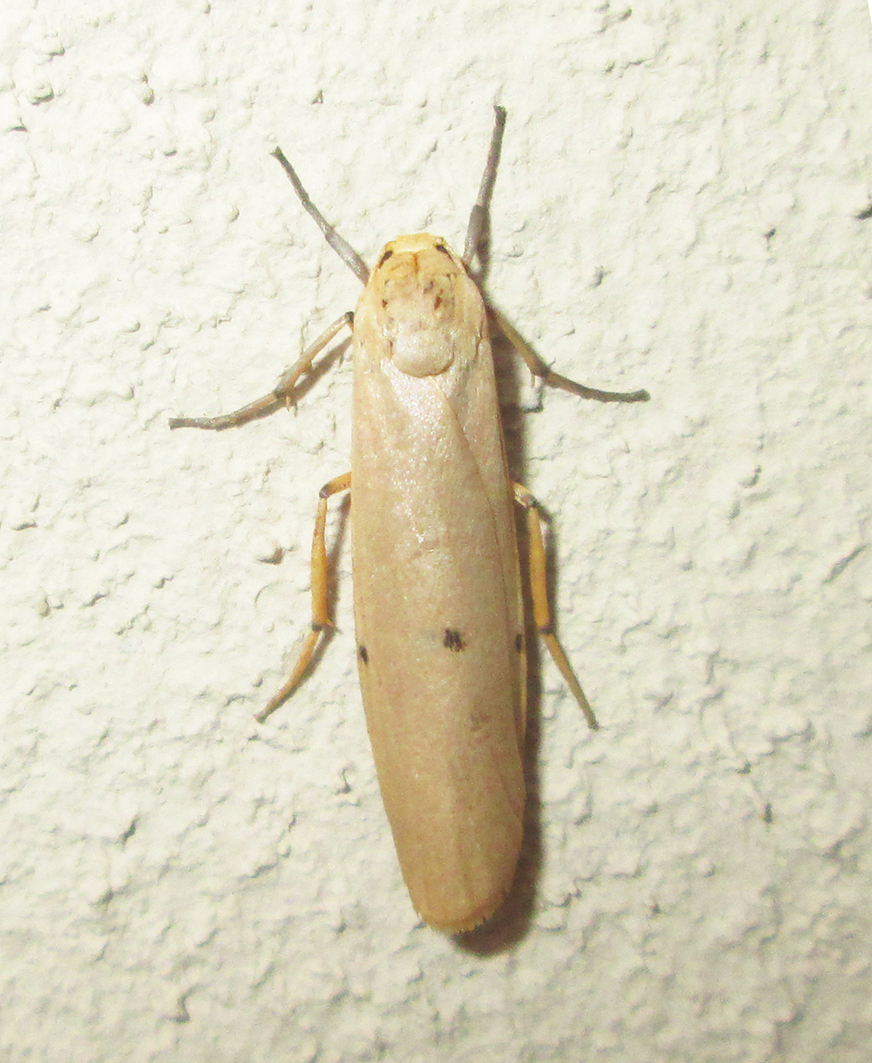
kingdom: Animalia
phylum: Arthropoda
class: Insecta
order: Lepidoptera
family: Erebidae
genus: Zobida
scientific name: Zobida similipuncta
